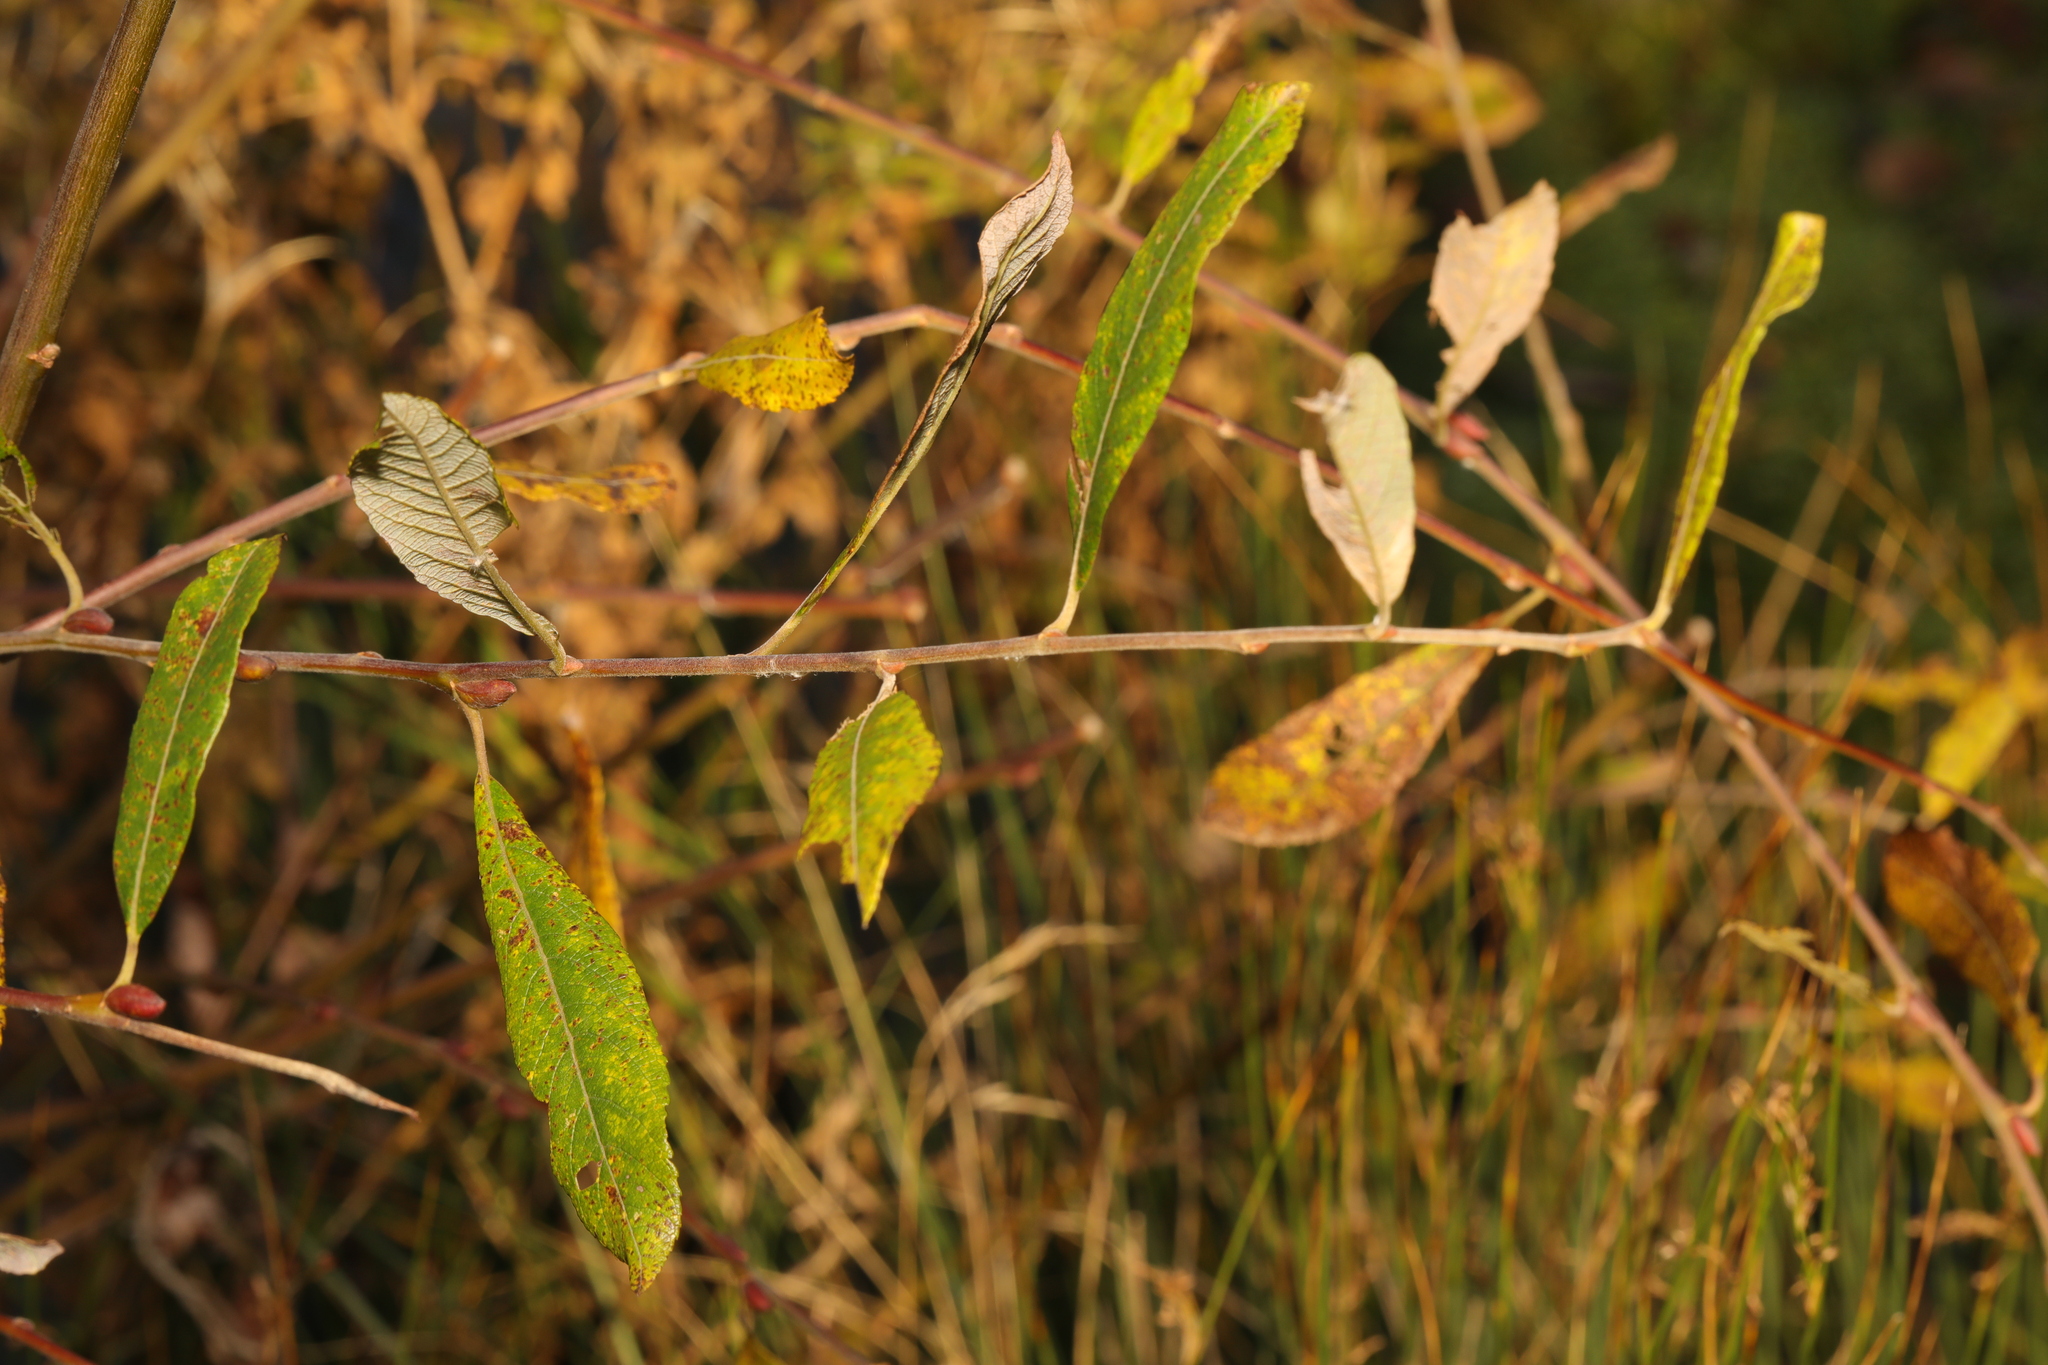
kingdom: Plantae
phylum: Tracheophyta
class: Magnoliopsida
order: Malpighiales
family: Salicaceae
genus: Salix
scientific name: Salix cinerea
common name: Common sallow
